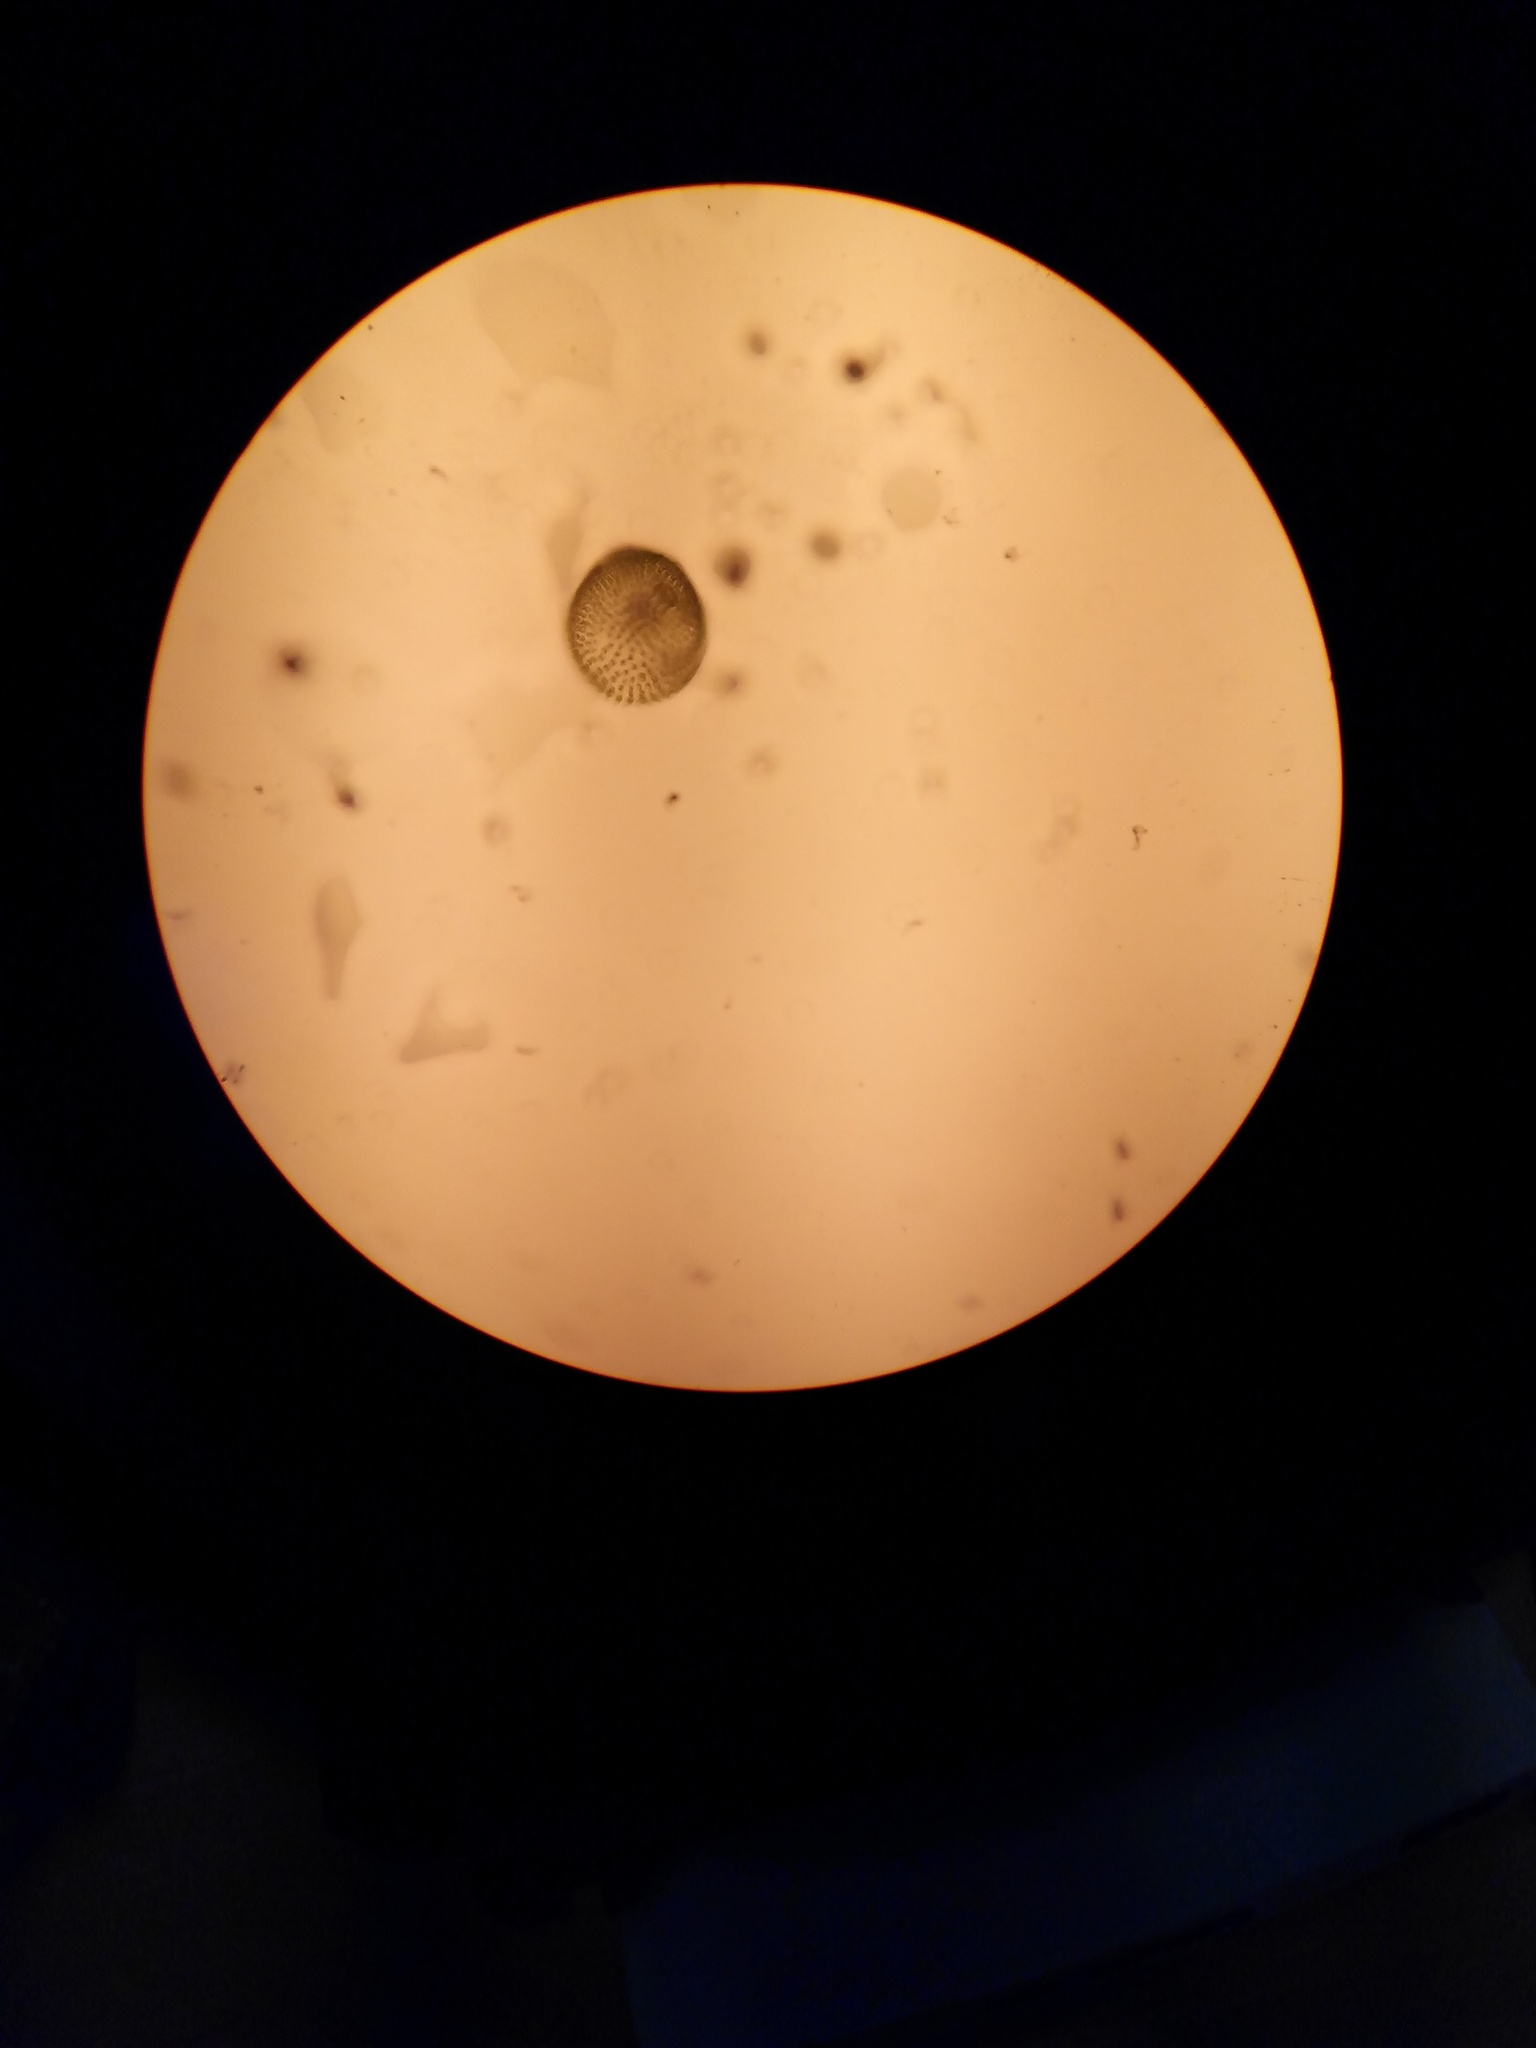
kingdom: Plantae
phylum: Chlorophyta
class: Chlorophyceae
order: Volvocales
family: Volvocaceae
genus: Volvox
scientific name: Volvox aureus
